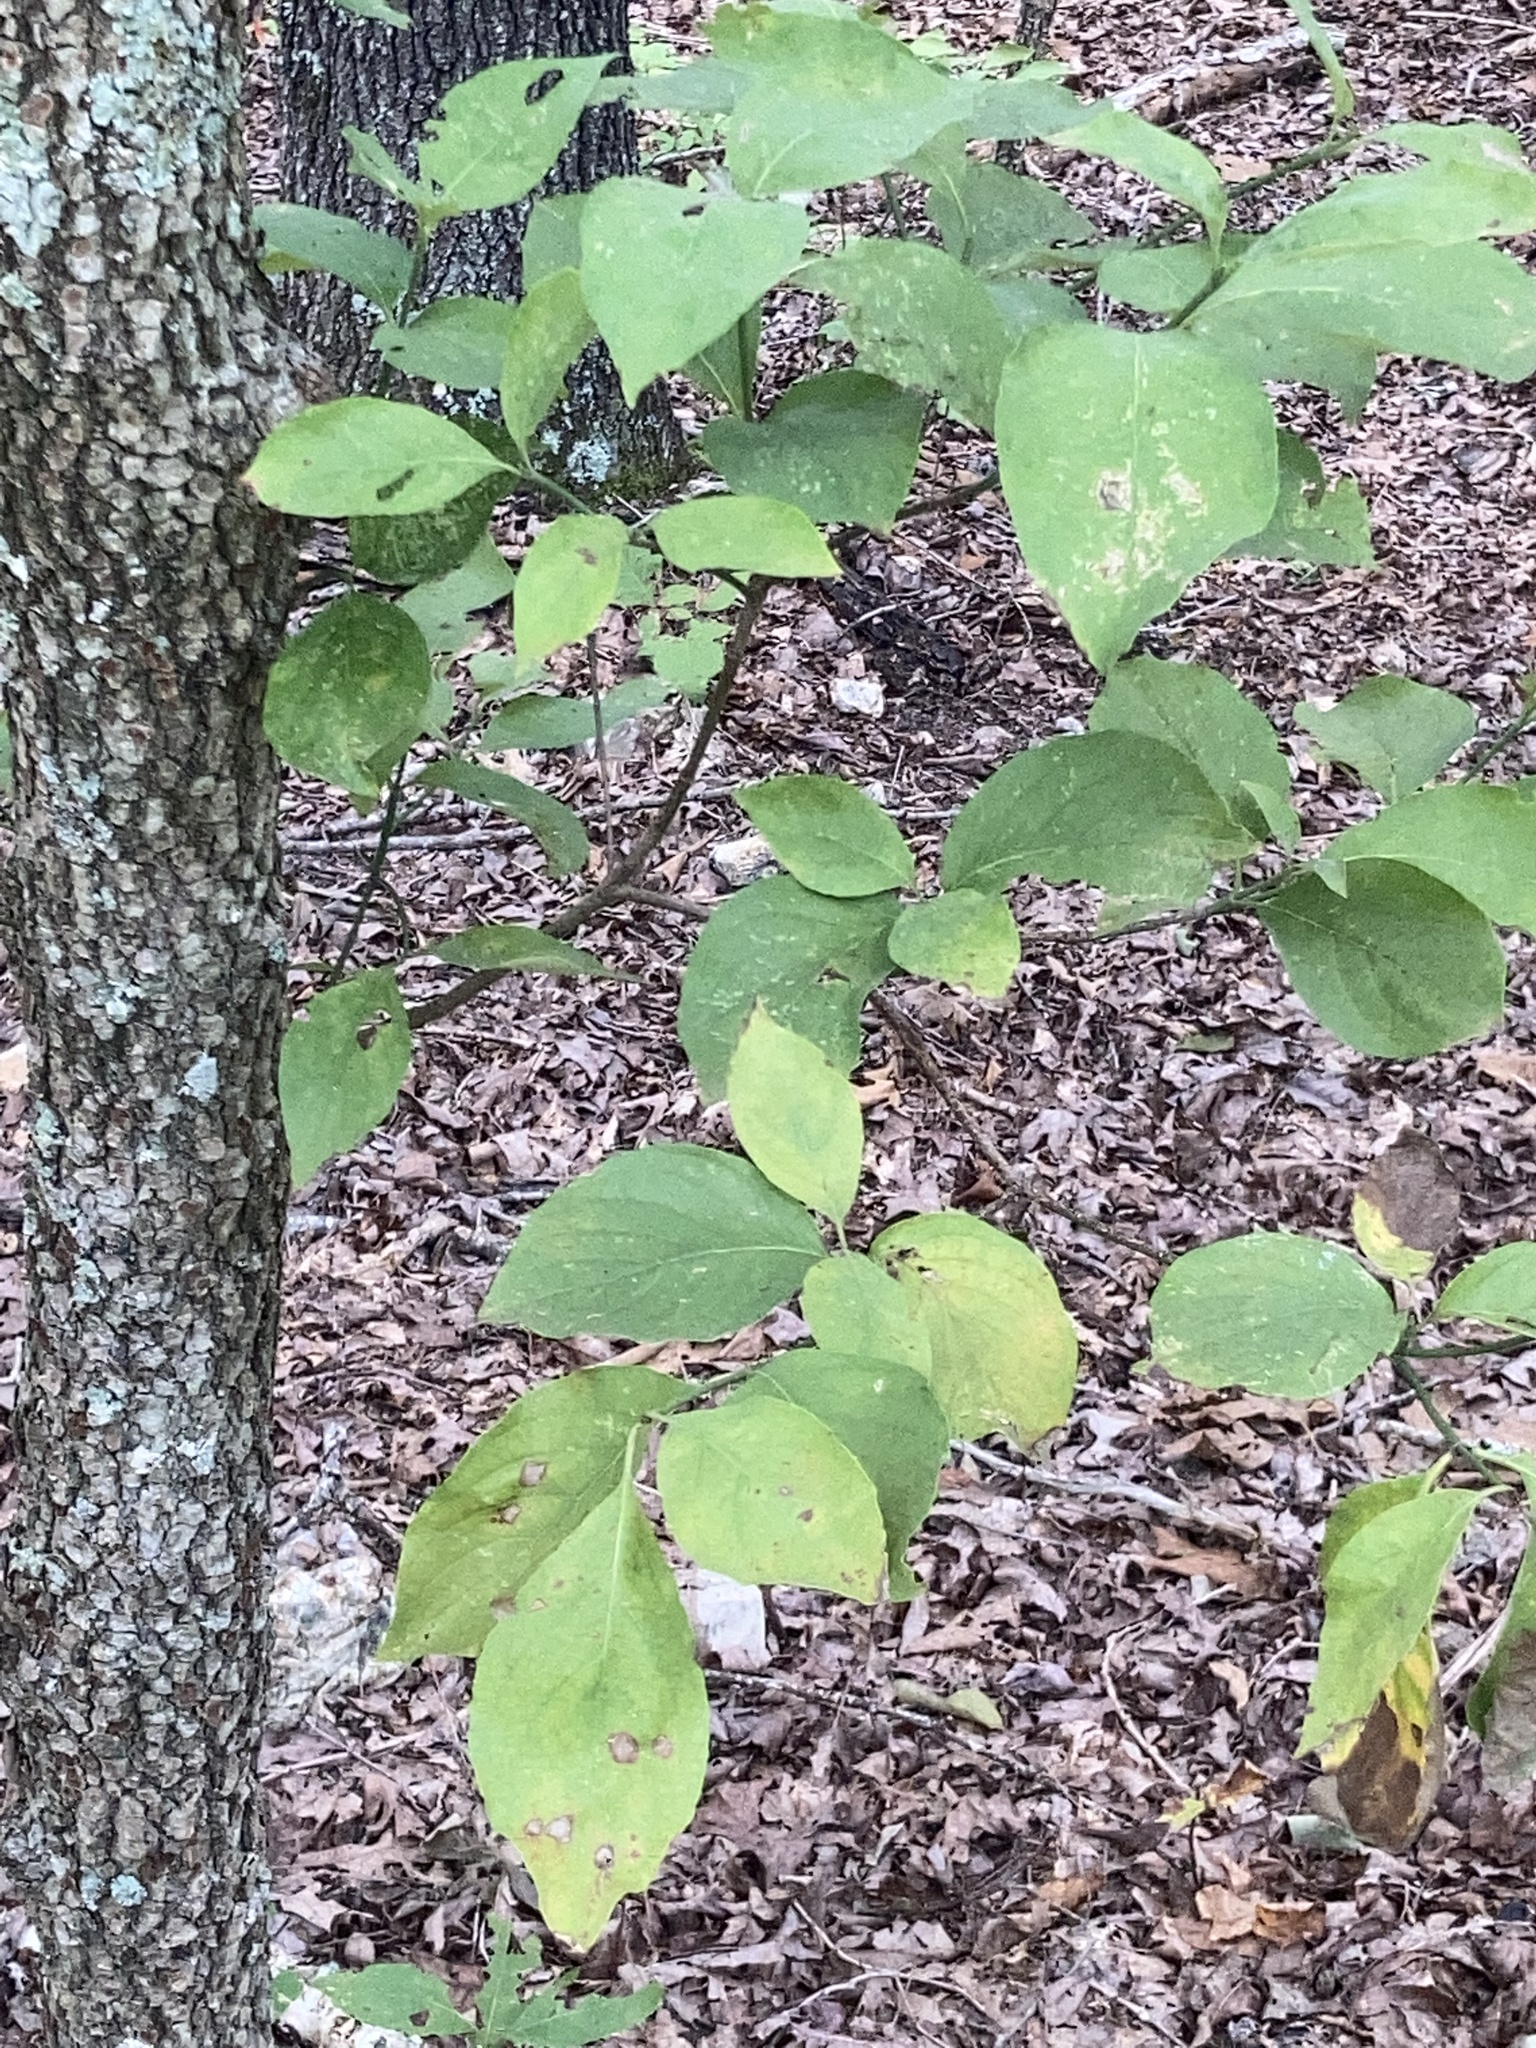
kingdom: Plantae
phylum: Tracheophyta
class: Magnoliopsida
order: Cornales
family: Cornaceae
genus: Cornus
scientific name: Cornus florida
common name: Flowering dogwood
